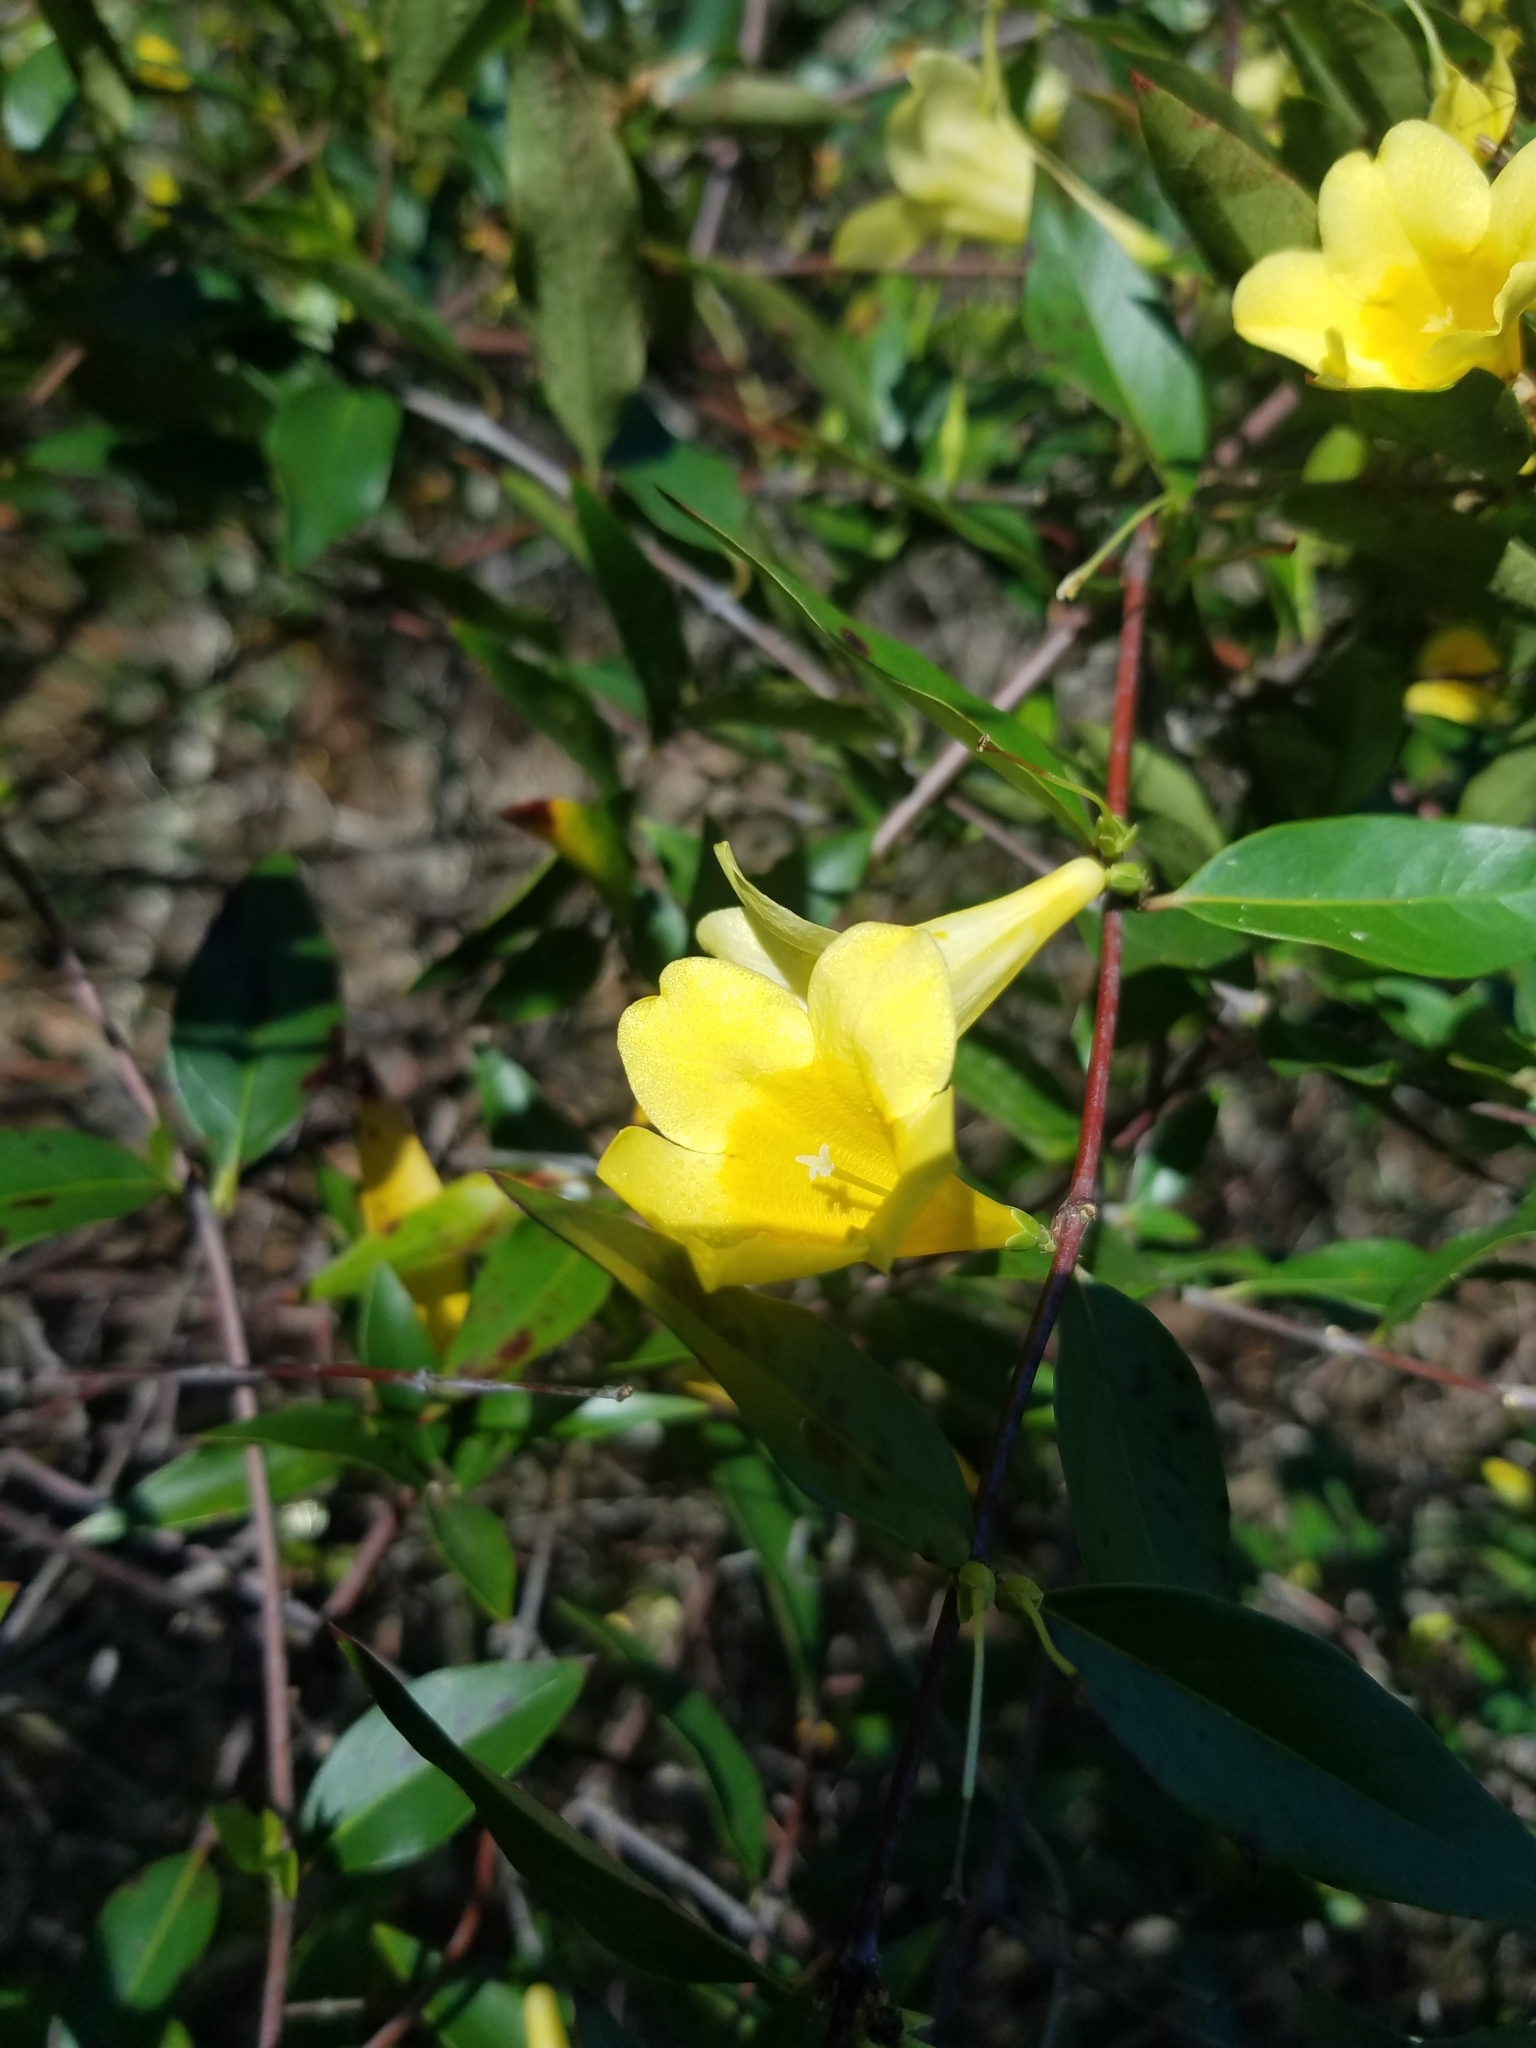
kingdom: Plantae
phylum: Tracheophyta
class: Magnoliopsida
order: Gentianales
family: Gelsemiaceae
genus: Gelsemium
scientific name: Gelsemium sempervirens
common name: Carolina-jasmine
